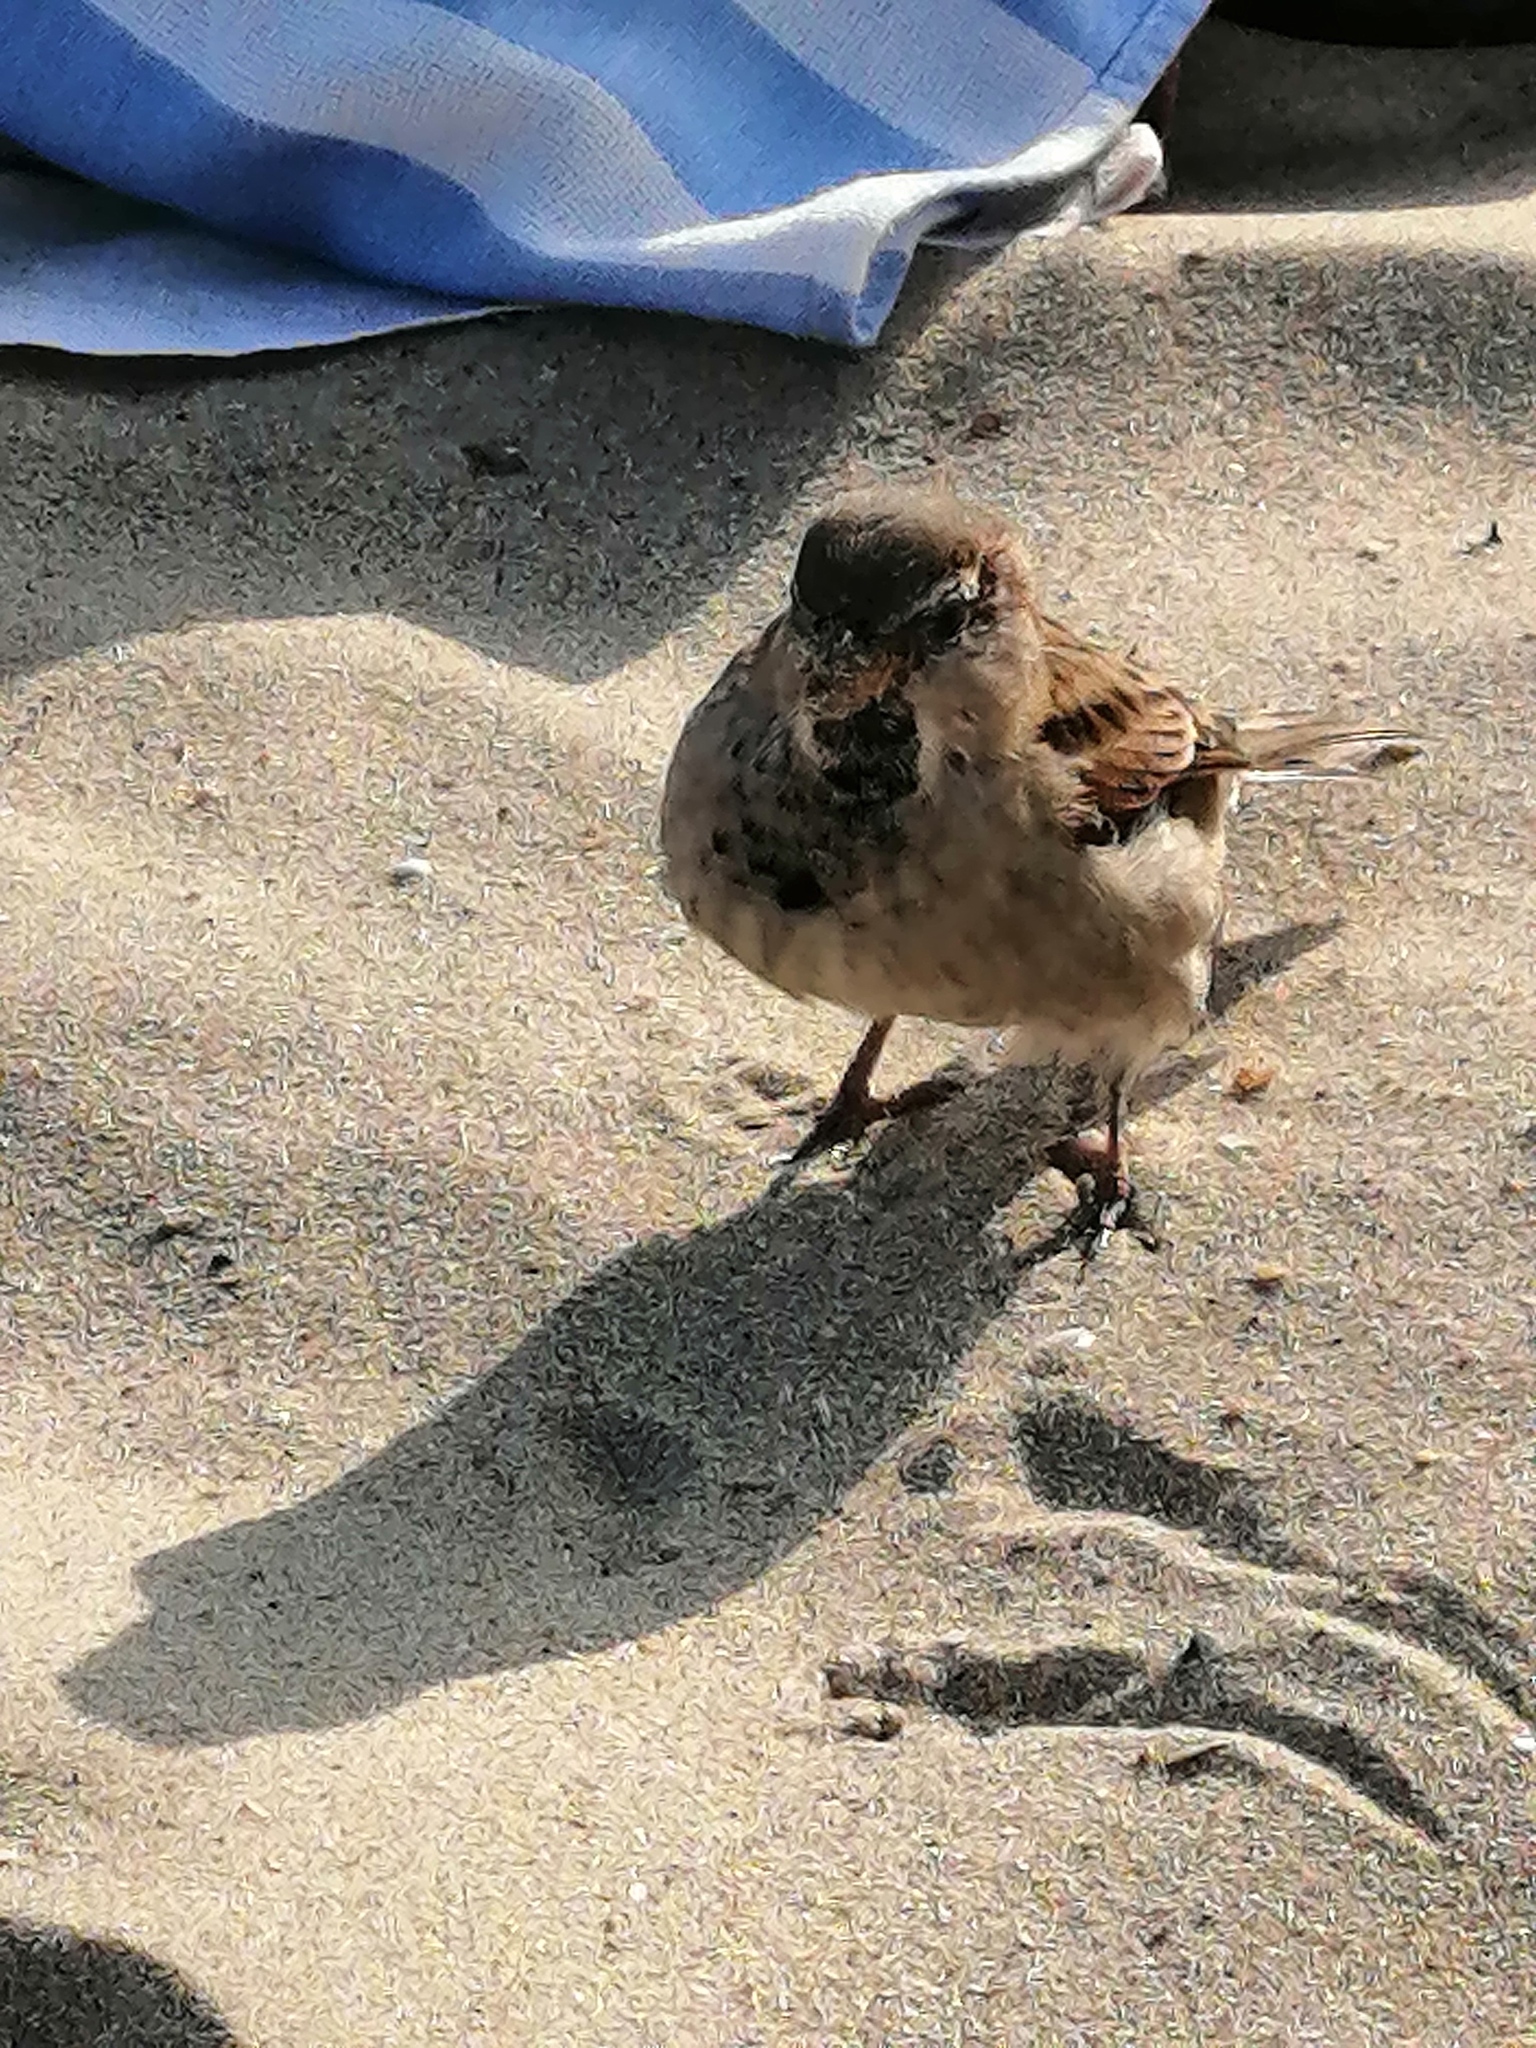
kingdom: Animalia
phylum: Chordata
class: Aves
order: Passeriformes
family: Passeridae
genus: Passer
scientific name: Passer domesticus
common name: House sparrow
